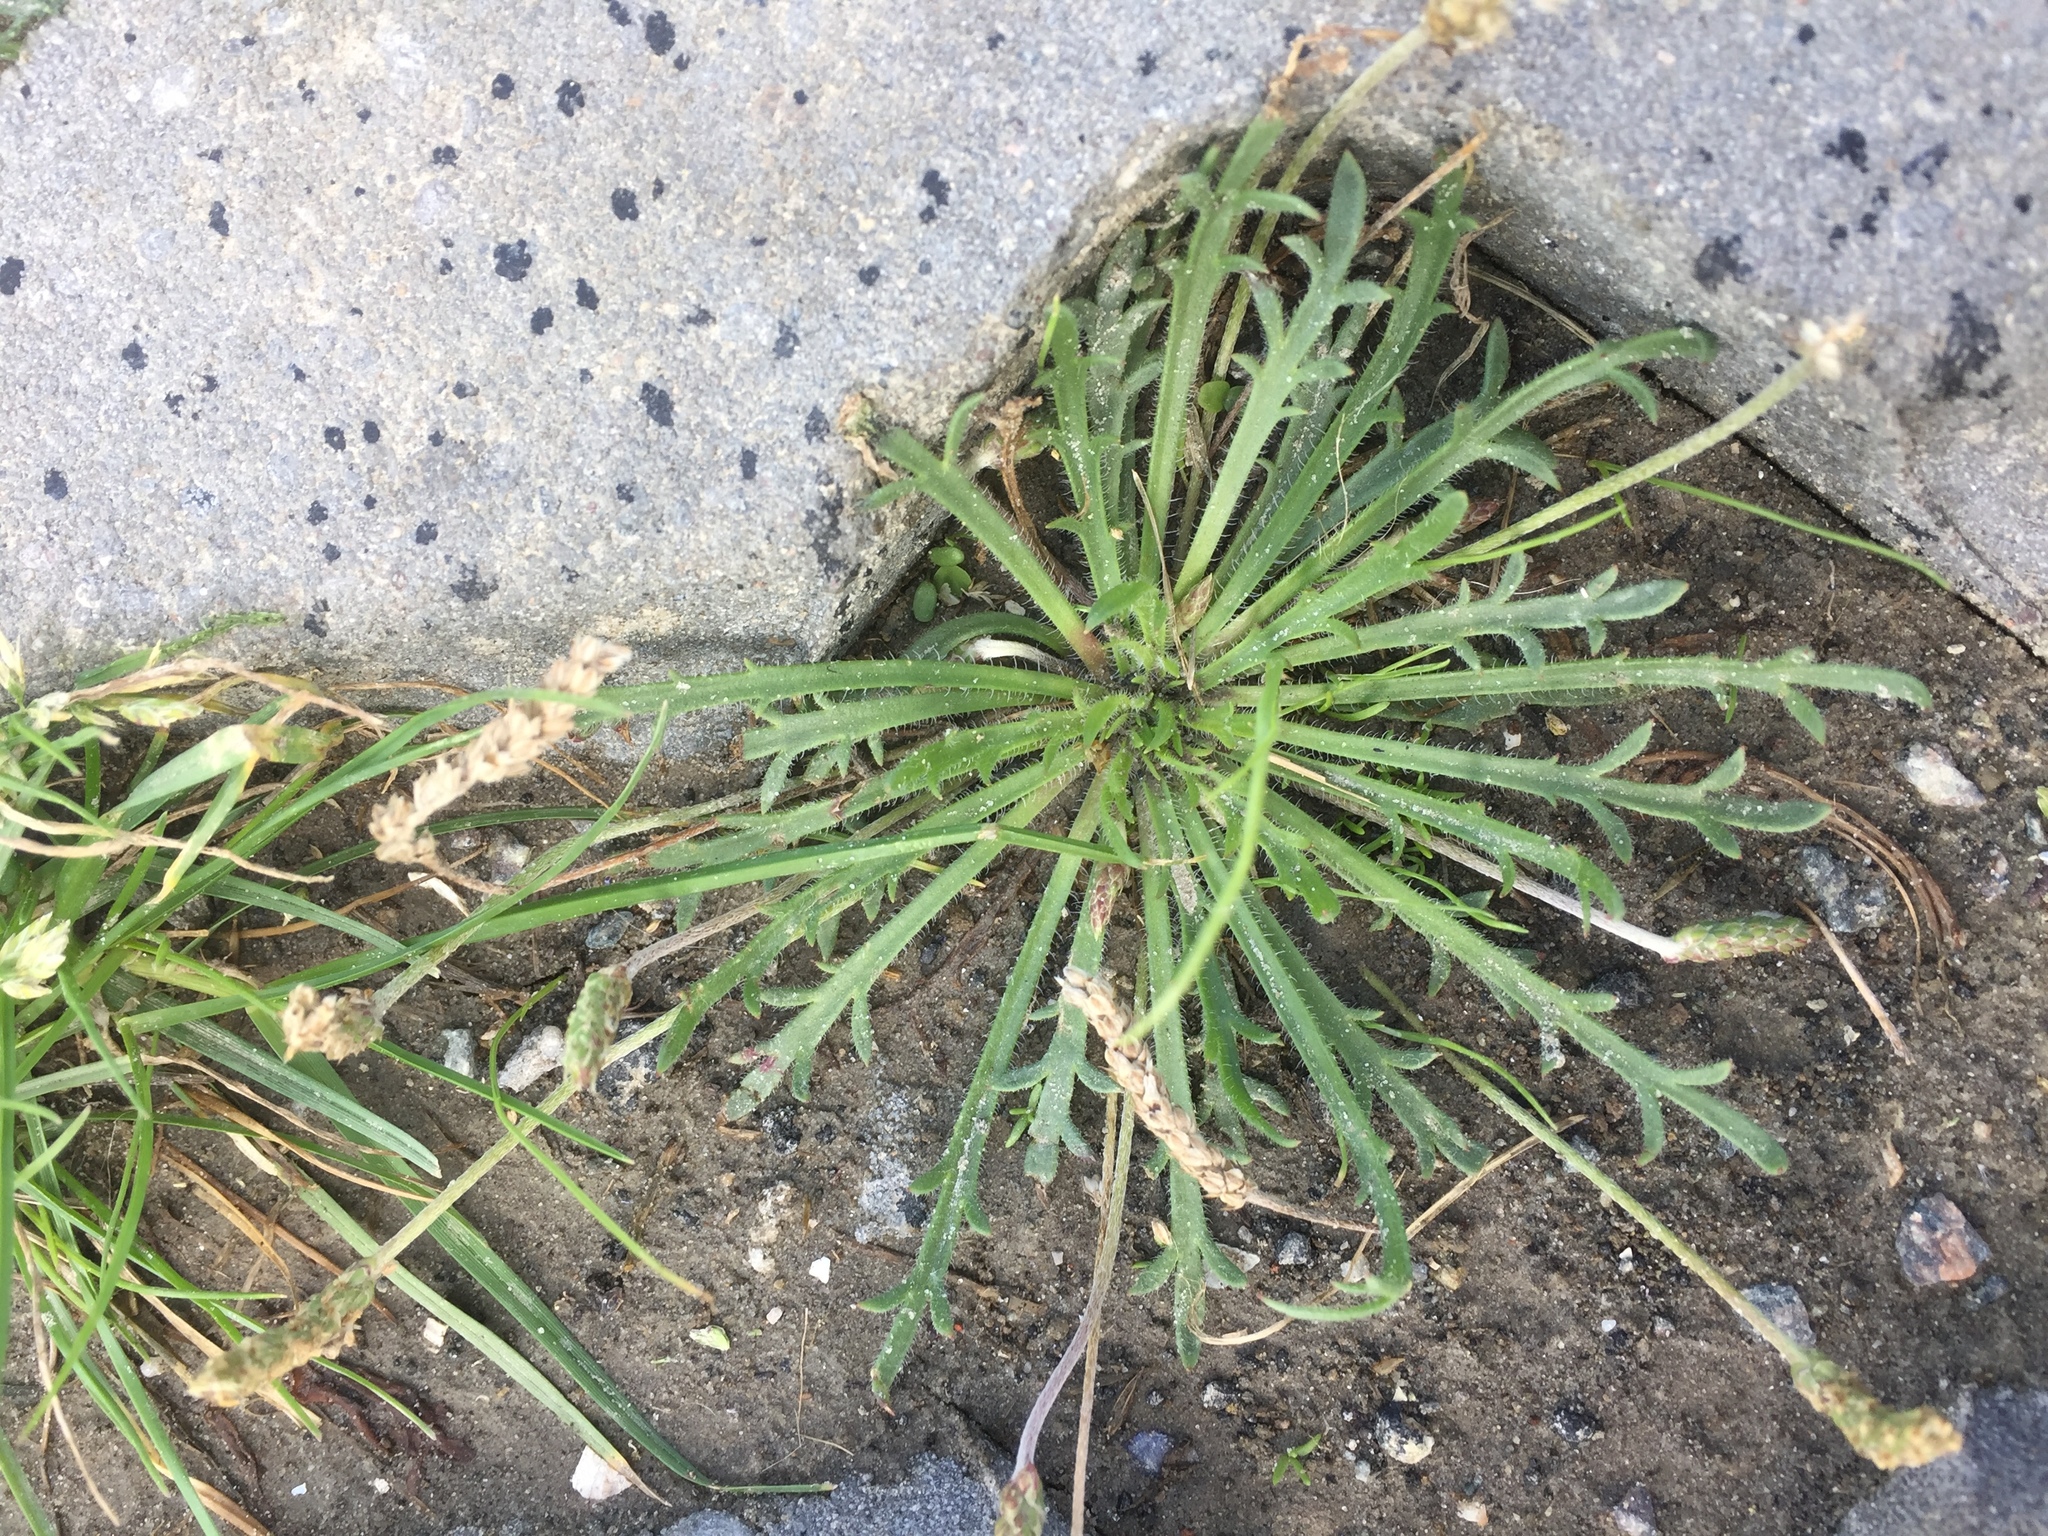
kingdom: Plantae
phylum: Tracheophyta
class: Magnoliopsida
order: Lamiales
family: Plantaginaceae
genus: Plantago
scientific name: Plantago coronopus
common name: Buck's-horn plantain
